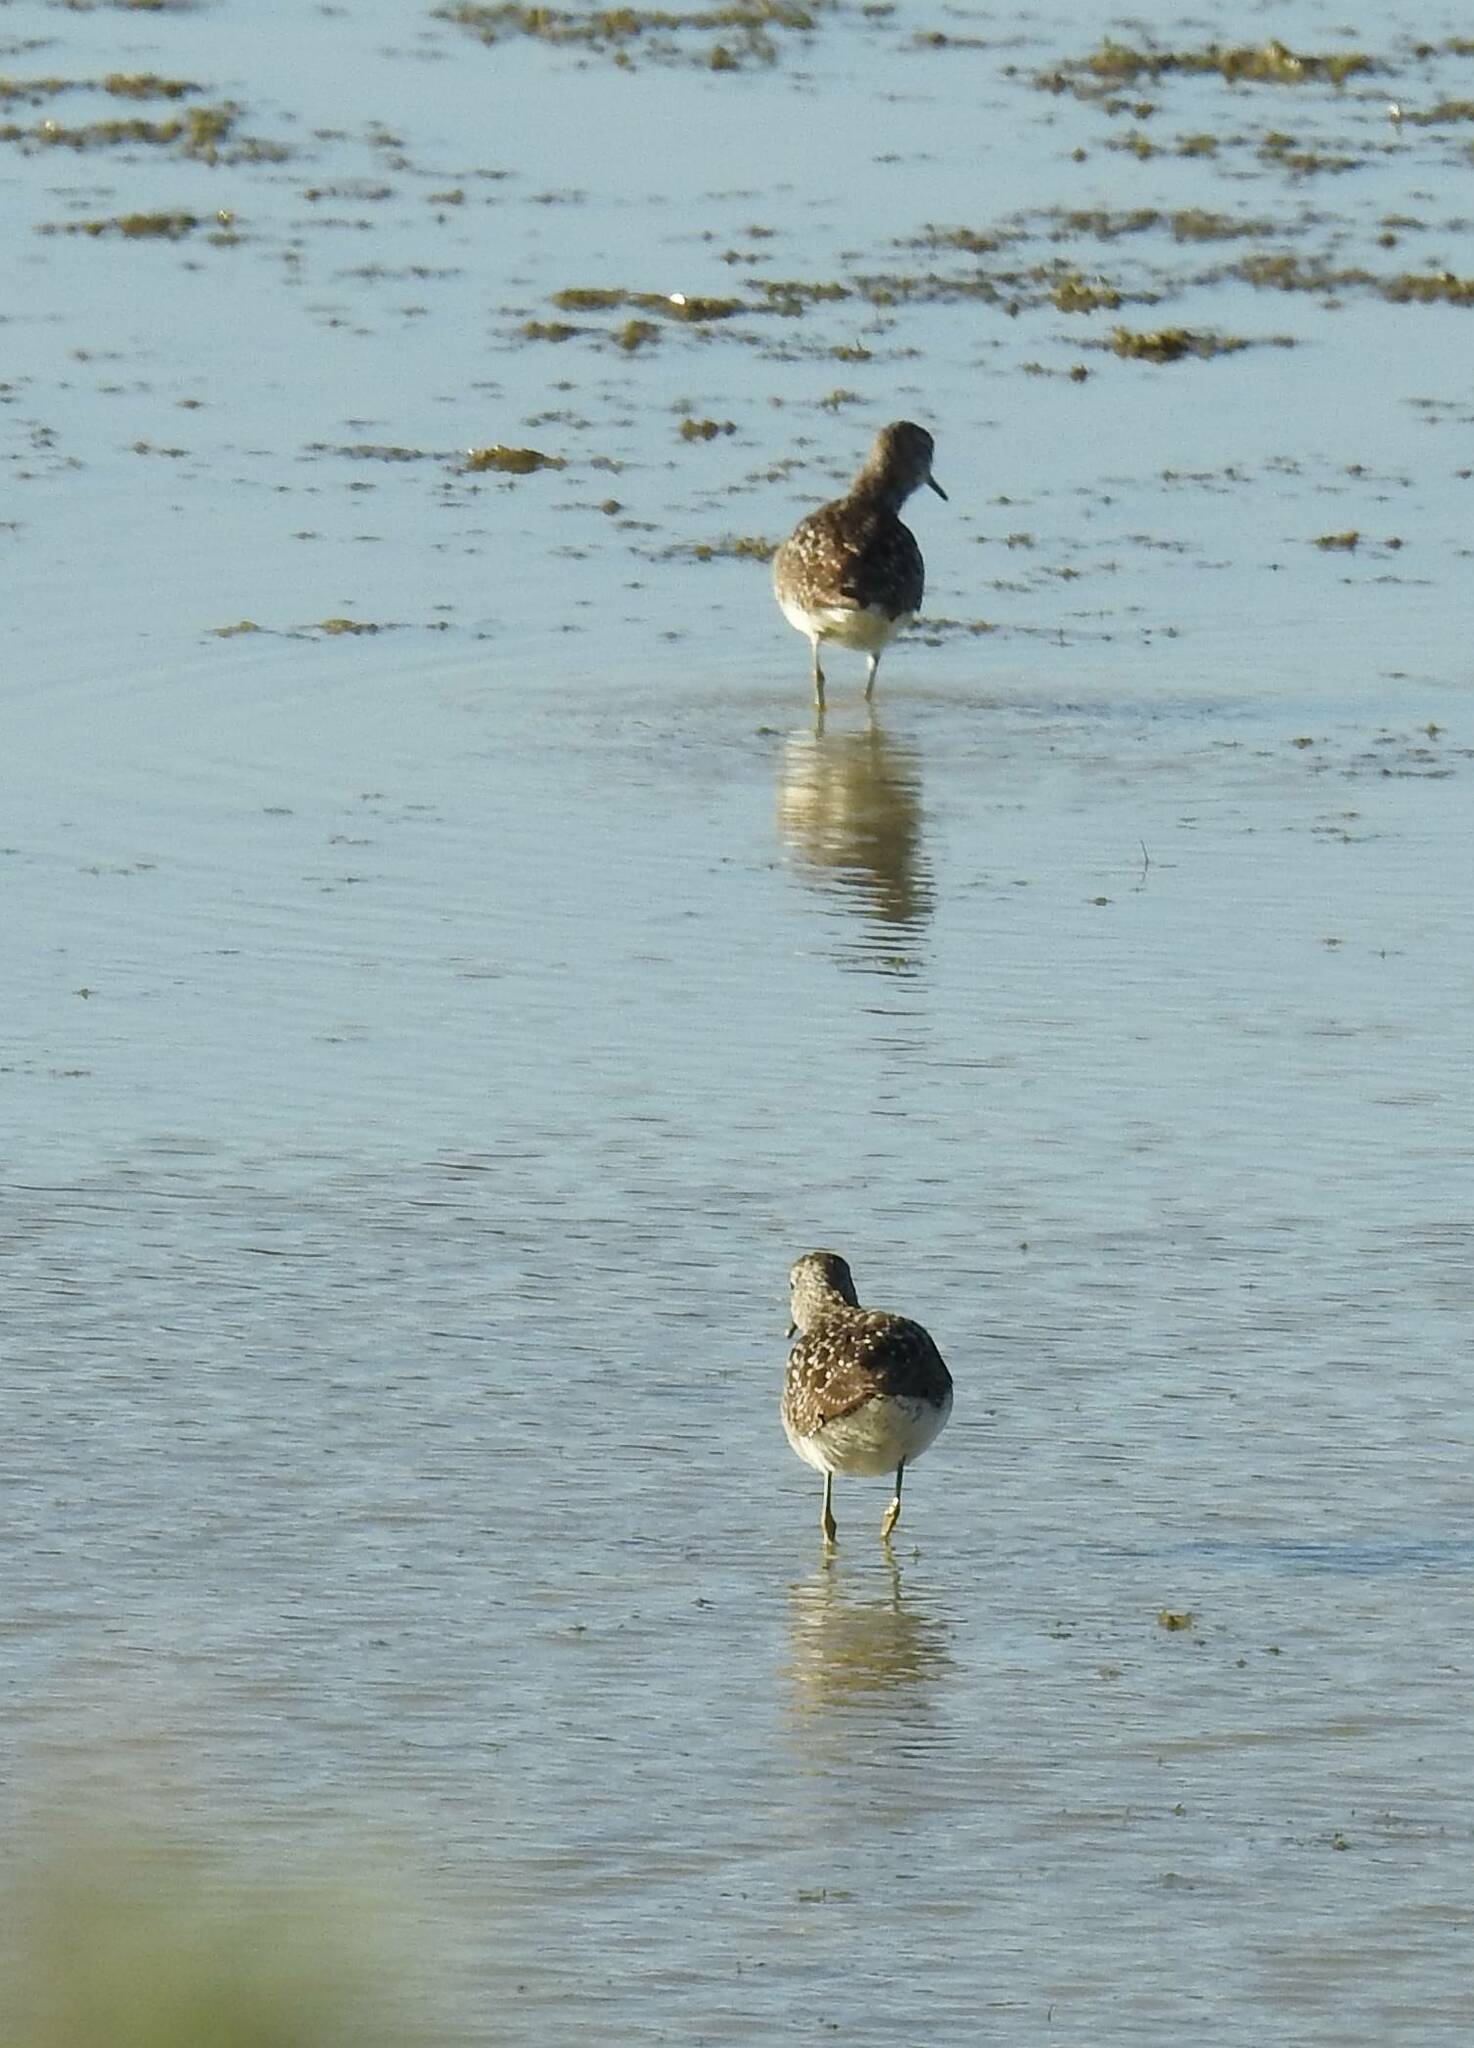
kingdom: Animalia
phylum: Chordata
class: Aves
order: Charadriiformes
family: Scolopacidae
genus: Tringa
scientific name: Tringa glareola
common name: Wood sandpiper
